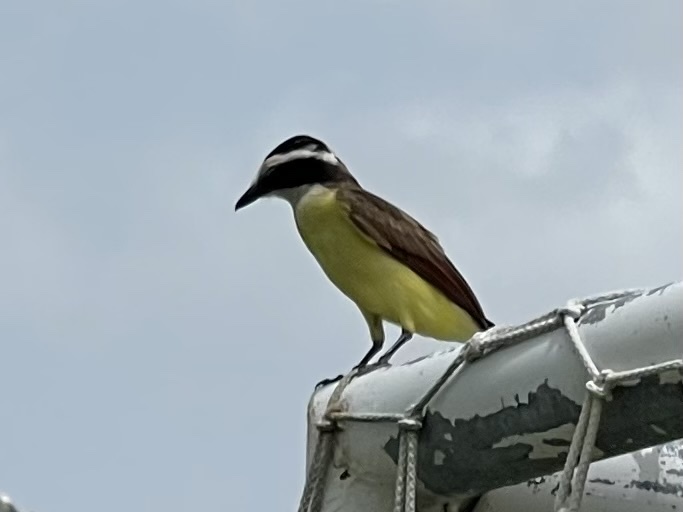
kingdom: Animalia
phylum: Chordata
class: Aves
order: Passeriformes
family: Tyrannidae
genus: Pitangus
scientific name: Pitangus sulphuratus
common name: Great kiskadee
